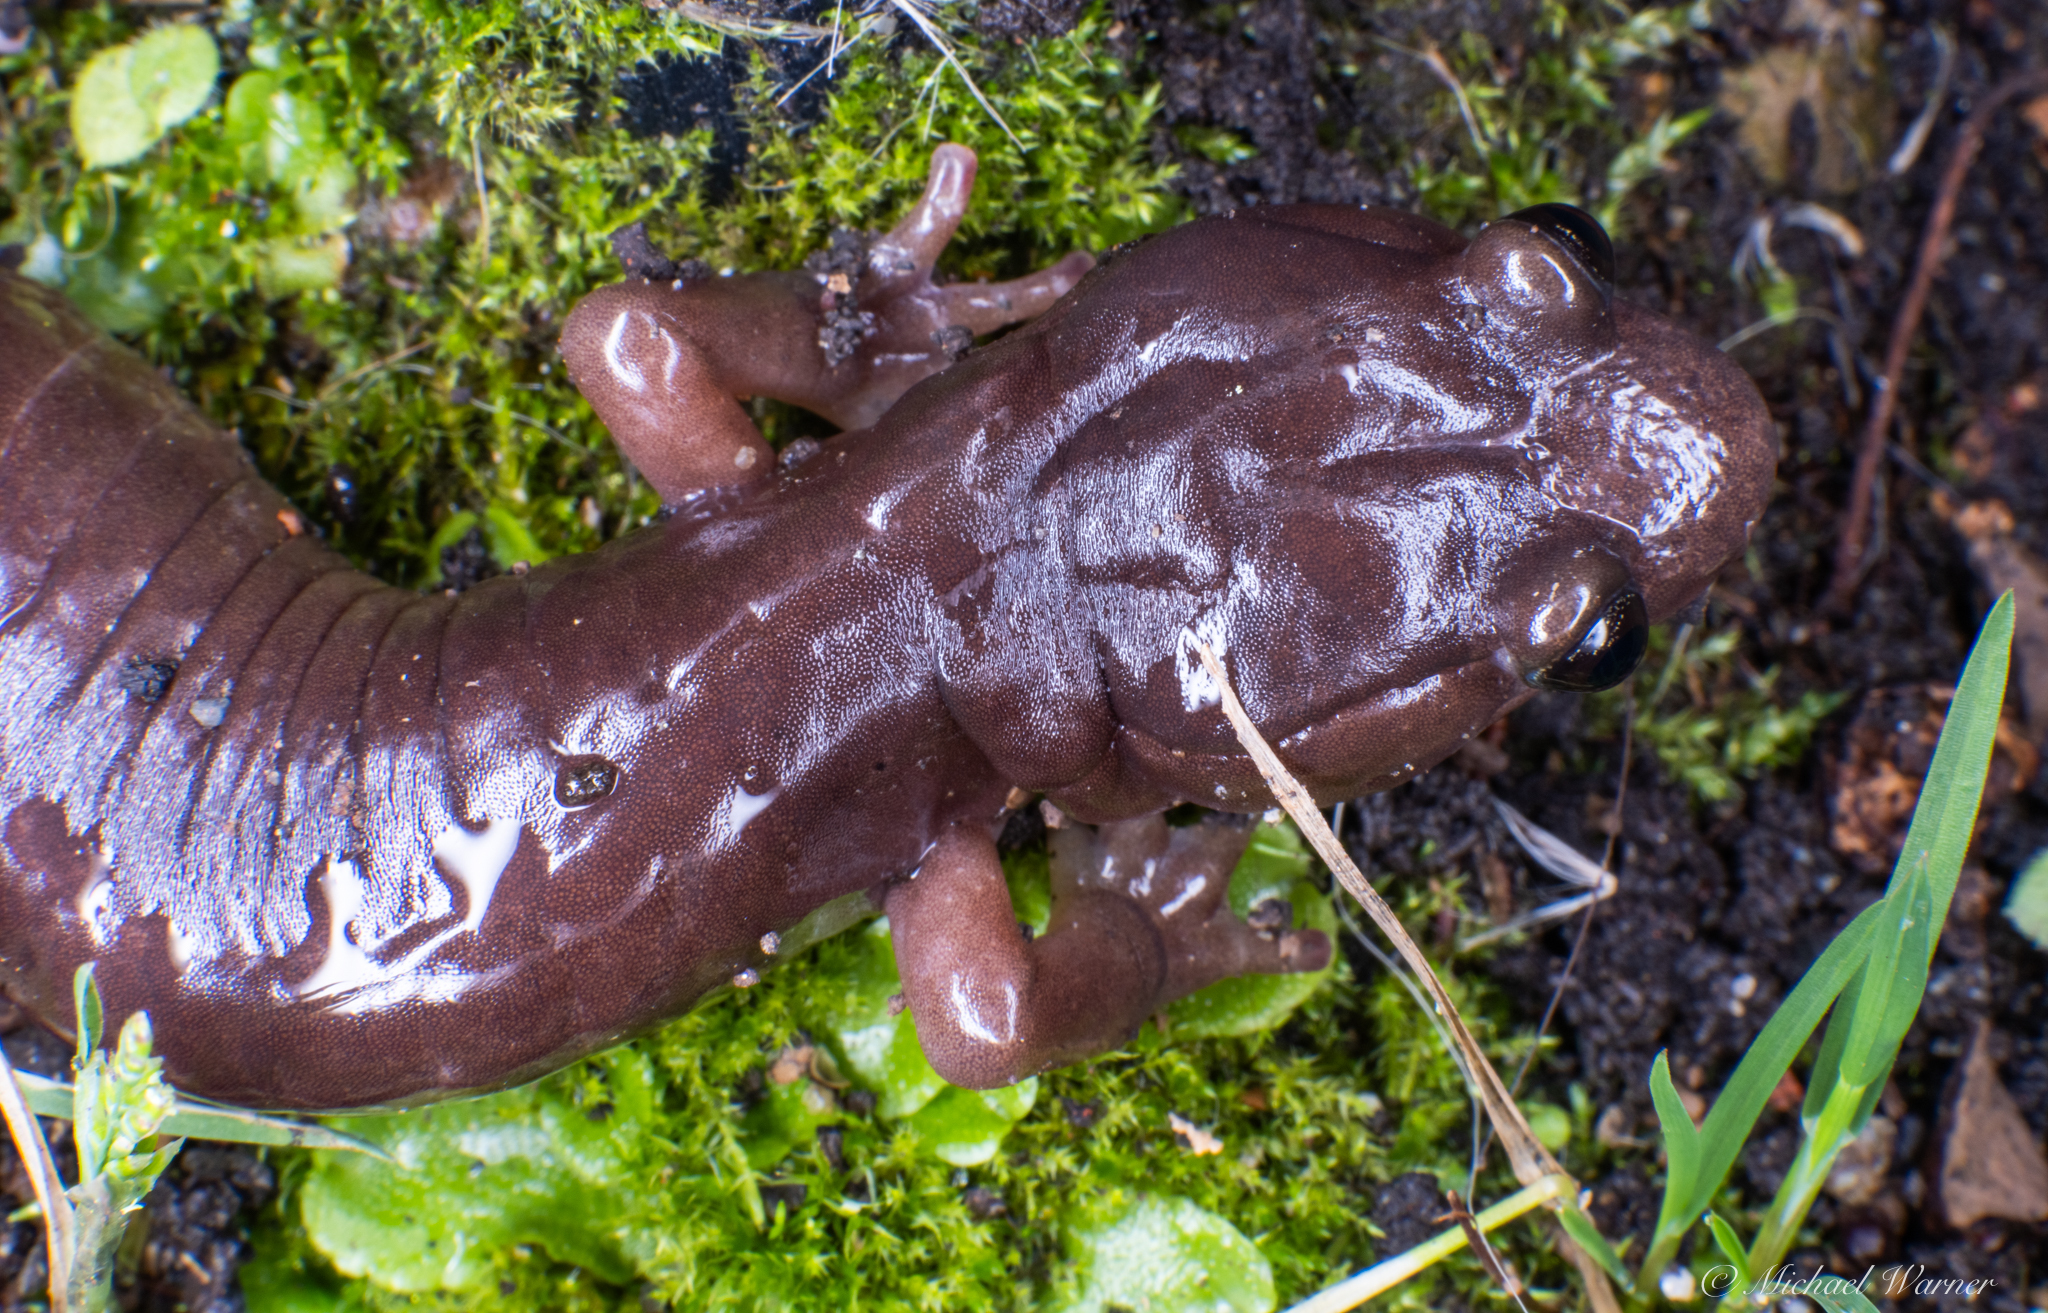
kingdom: Animalia
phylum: Chordata
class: Amphibia
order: Caudata
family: Plethodontidae
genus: Aneides
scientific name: Aneides lugubris
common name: Arboreal salamander
